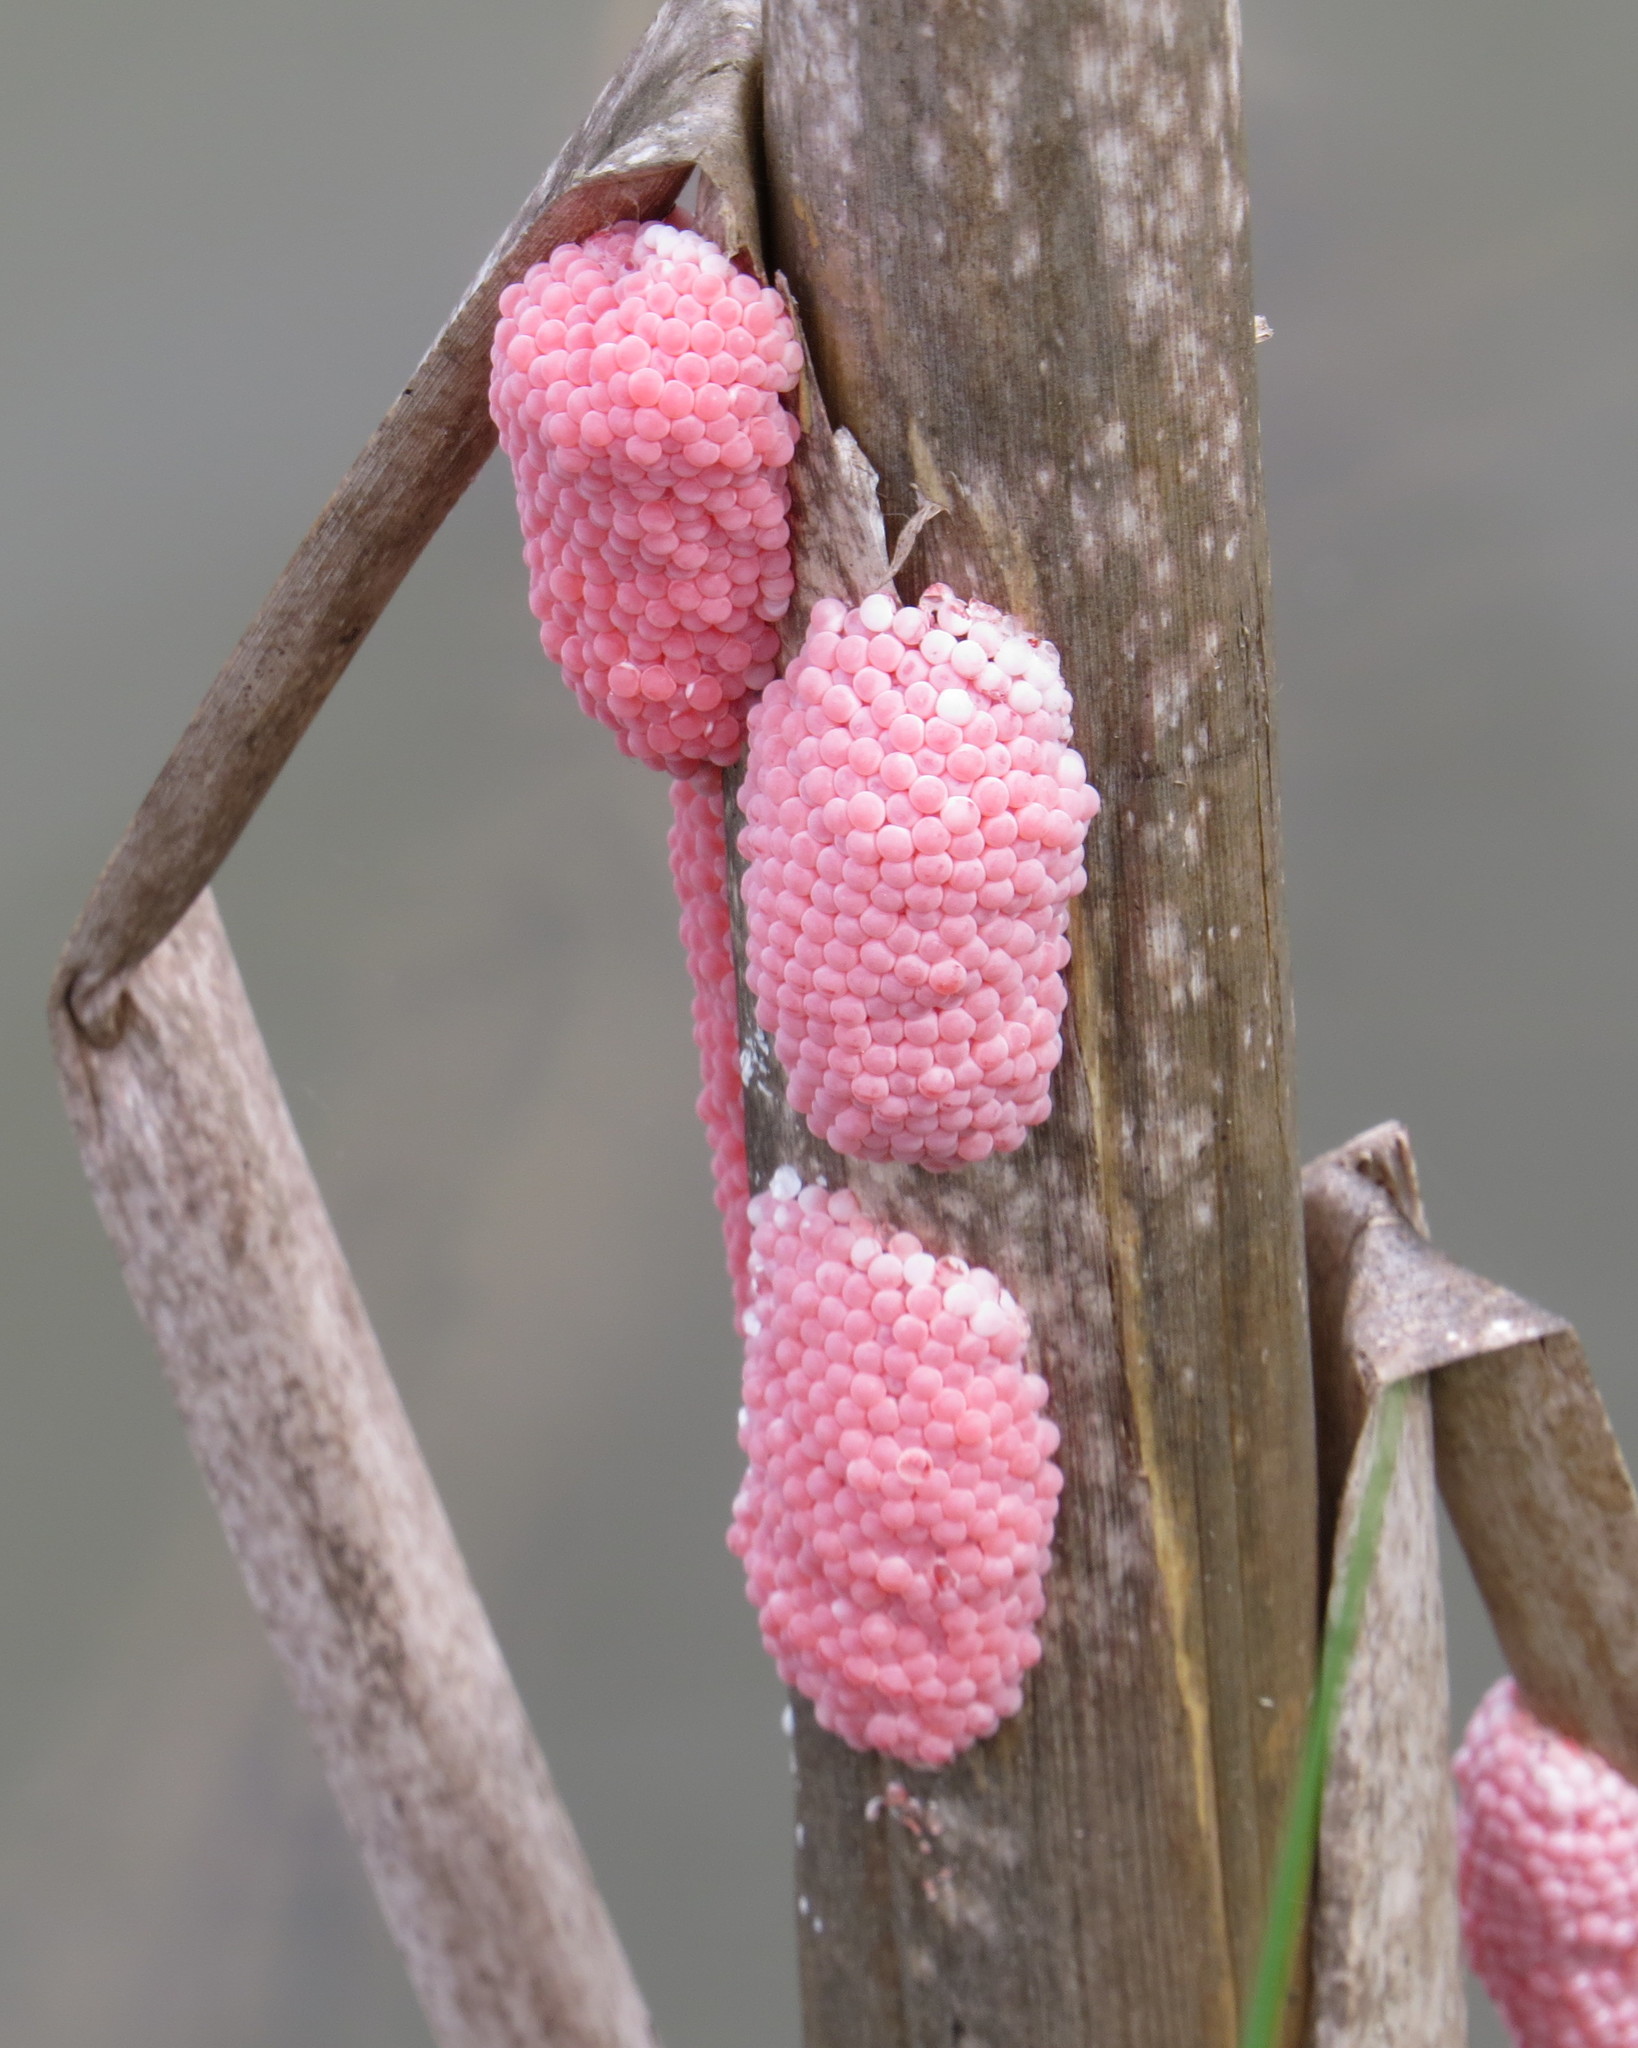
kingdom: Animalia
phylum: Mollusca
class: Gastropoda
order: Architaenioglossa
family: Ampullariidae
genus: Pomacea
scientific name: Pomacea maculata
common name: Giant applesnail
